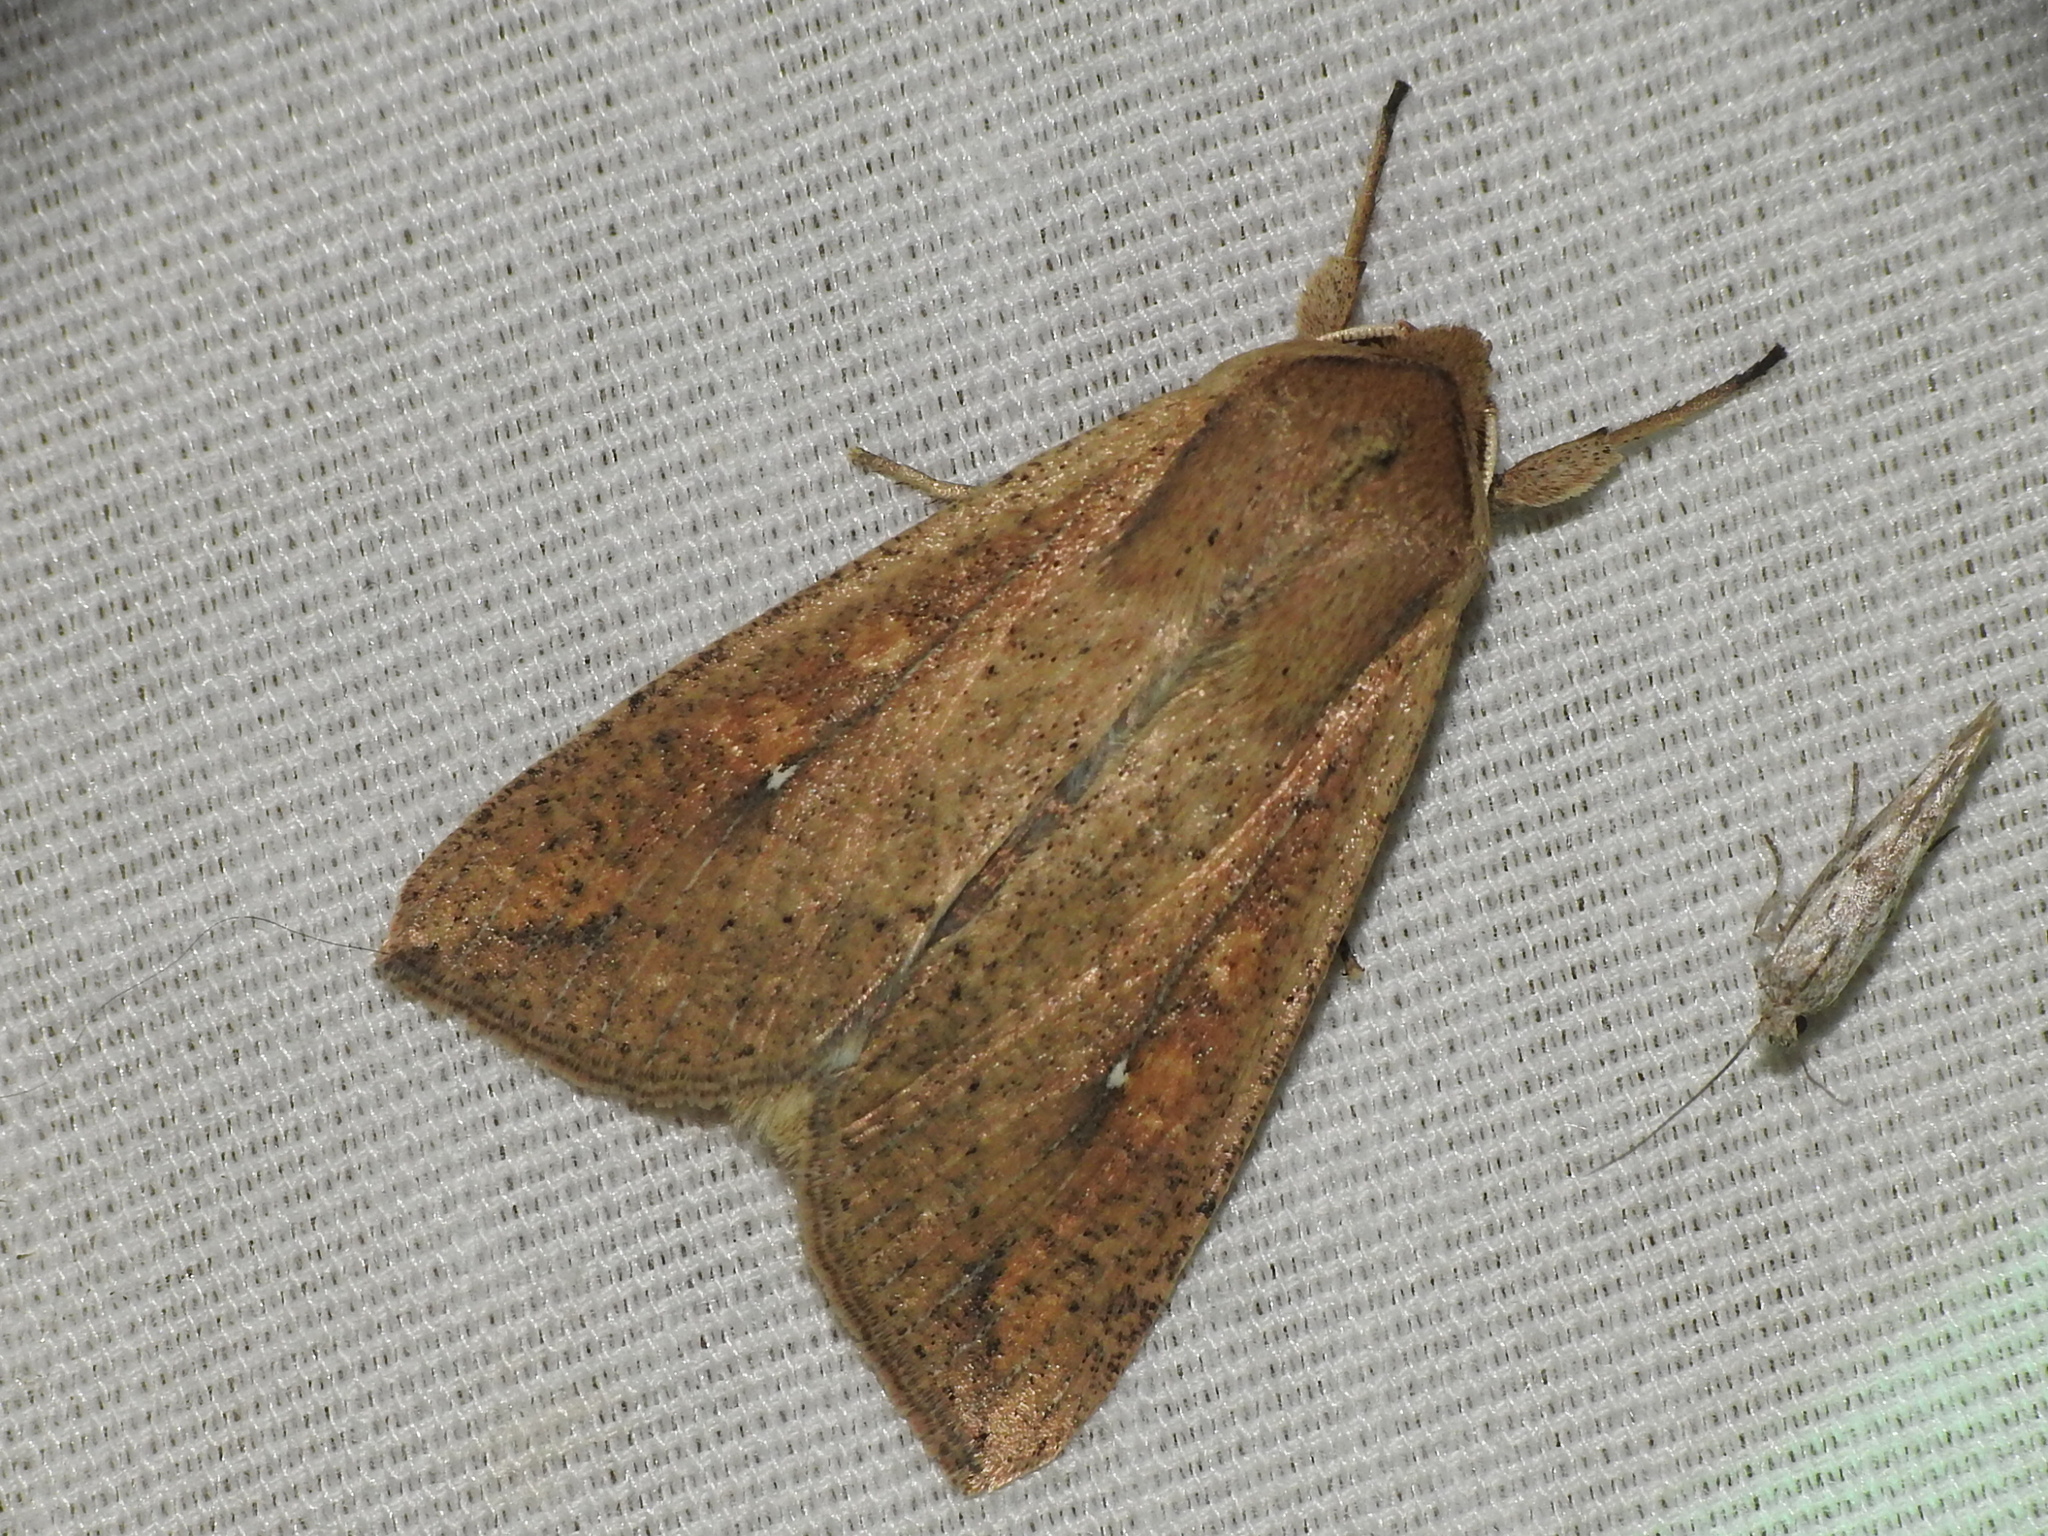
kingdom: Animalia
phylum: Arthropoda
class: Insecta
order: Lepidoptera
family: Noctuidae
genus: Mythimna
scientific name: Mythimna unipuncta
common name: White-speck
